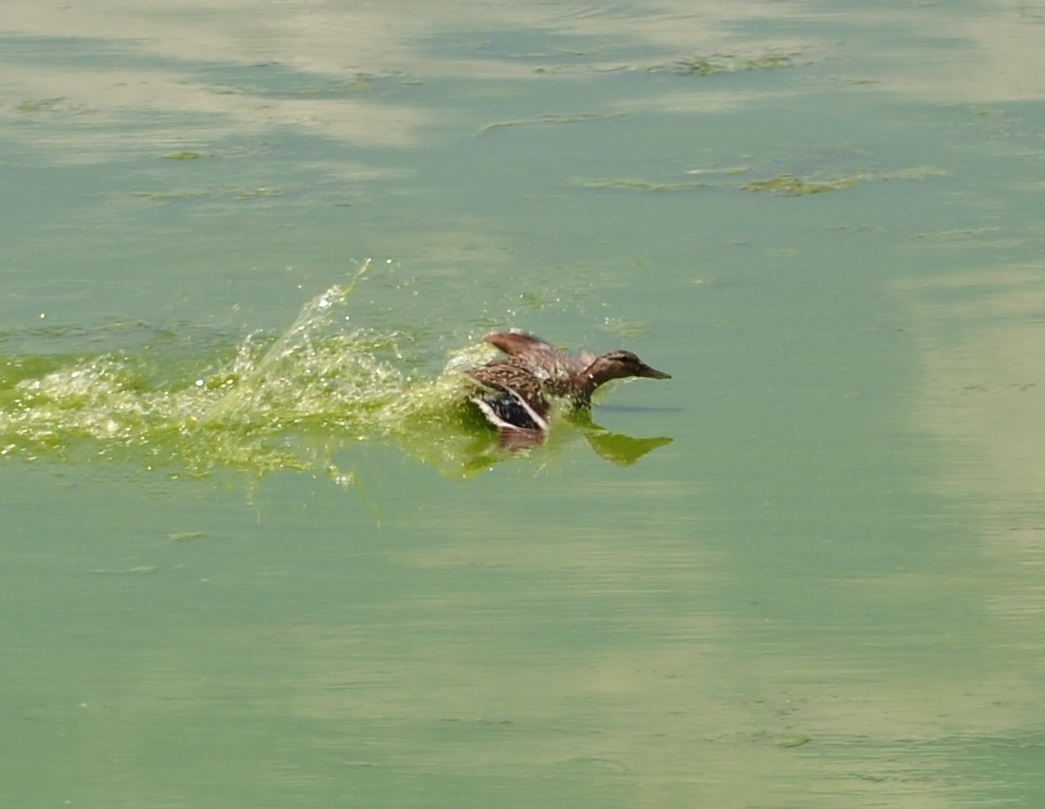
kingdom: Animalia
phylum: Chordata
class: Aves
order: Anseriformes
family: Anatidae
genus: Anas
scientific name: Anas platyrhynchos
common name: Mallard
